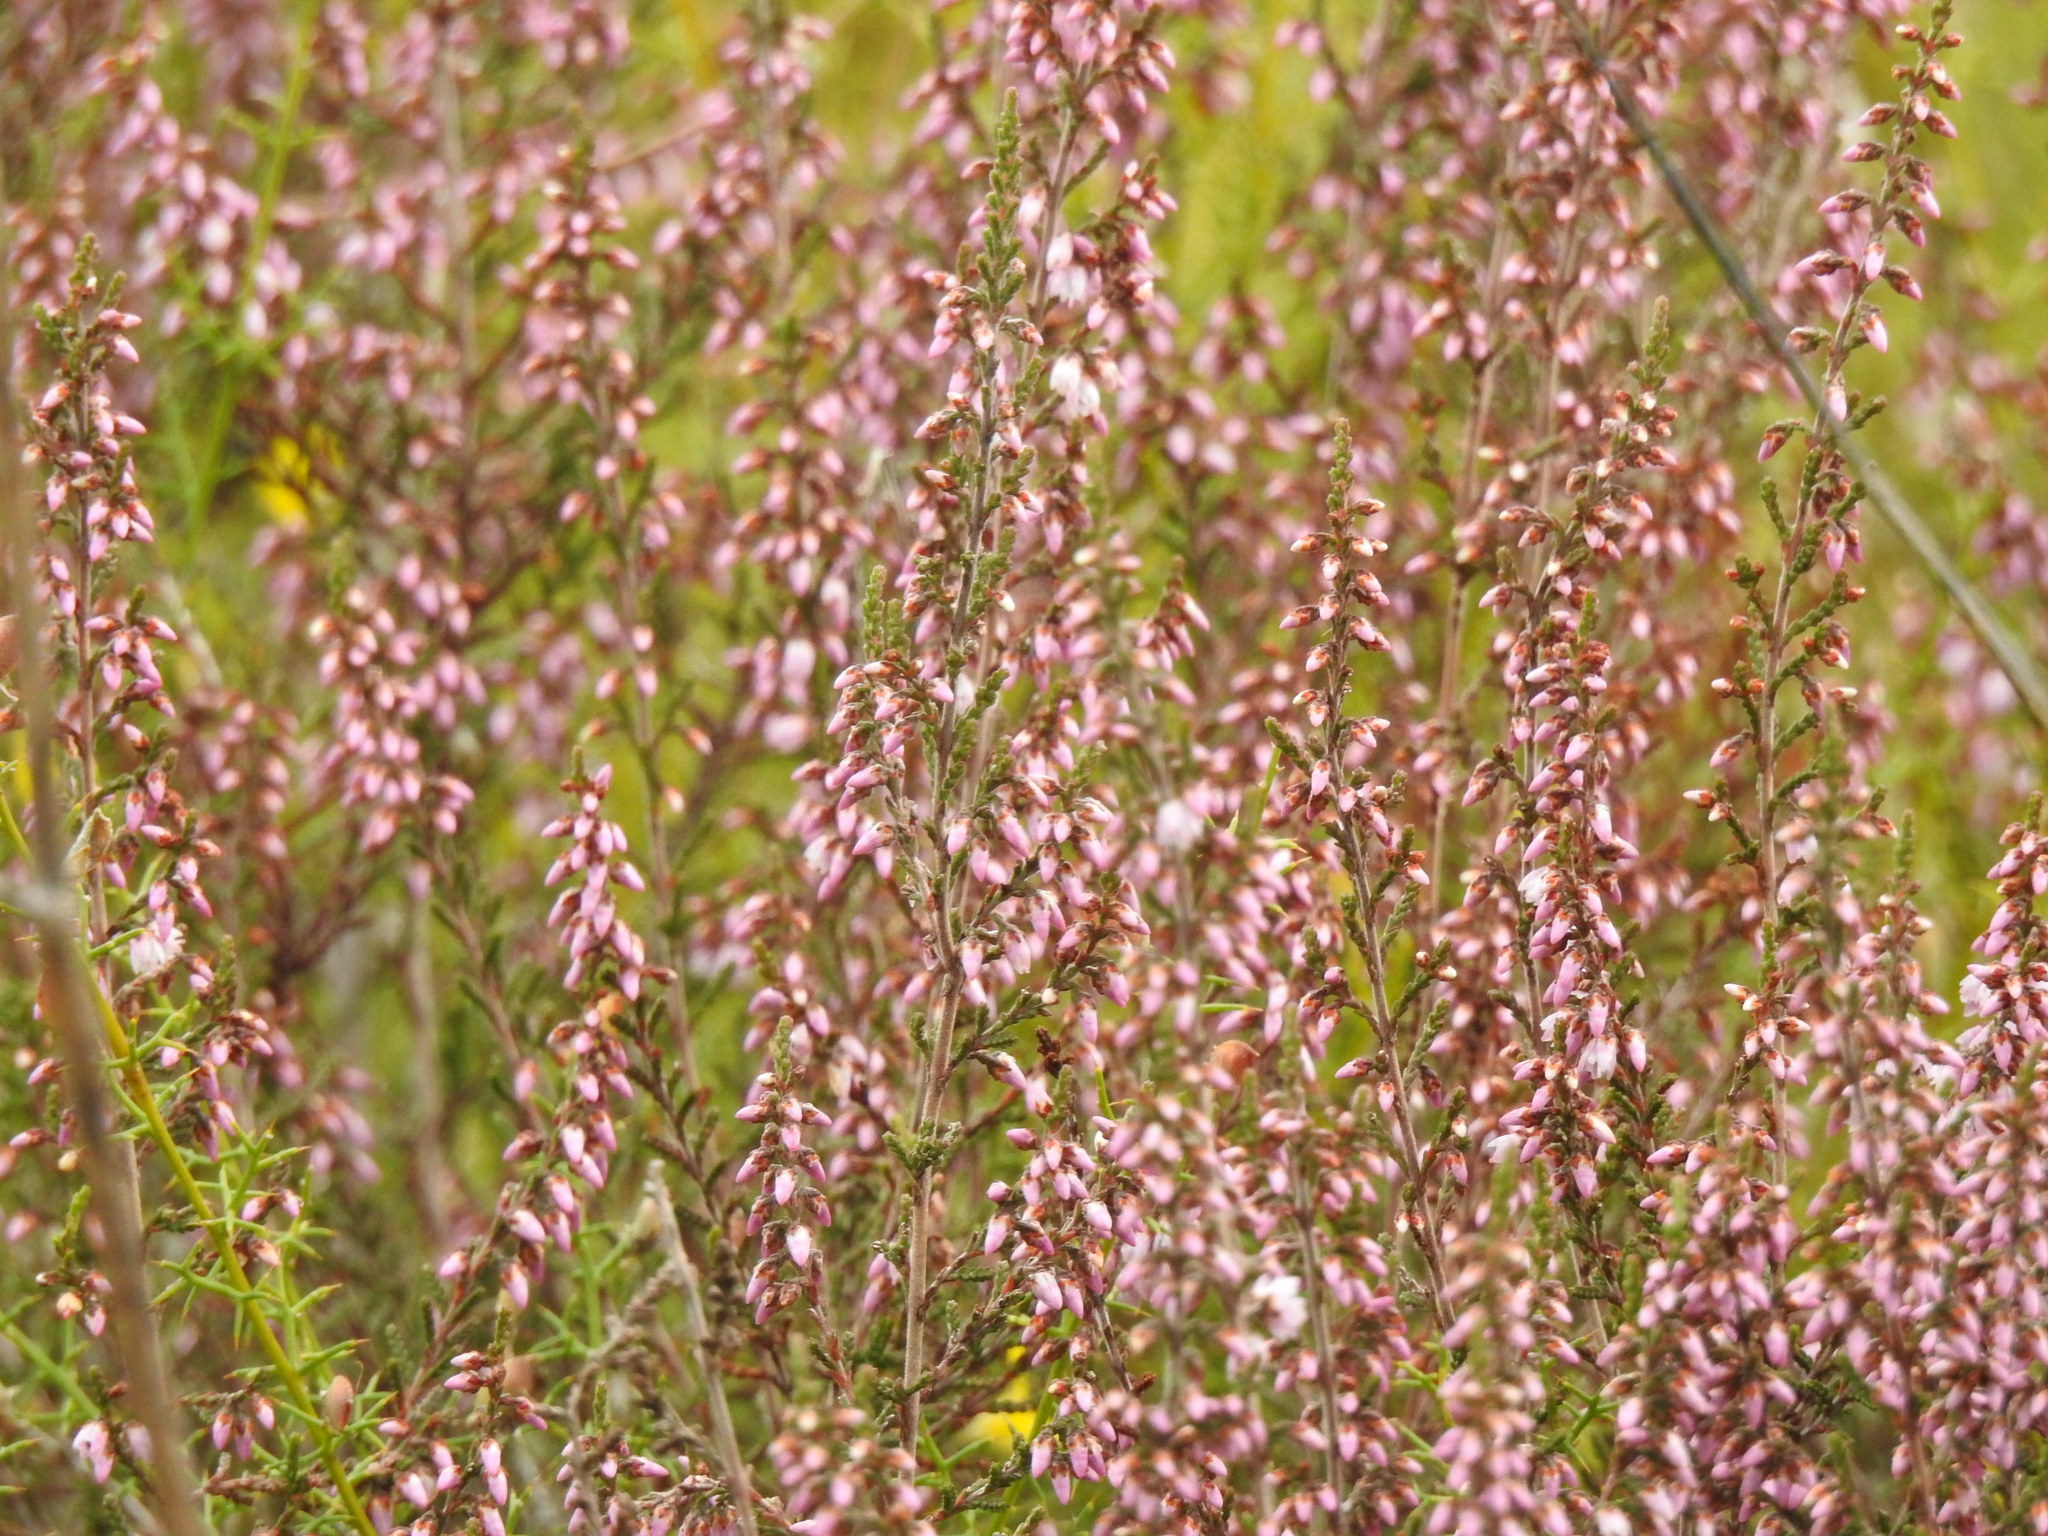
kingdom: Plantae
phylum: Tracheophyta
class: Magnoliopsida
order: Ericales
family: Ericaceae
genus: Calluna
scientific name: Calluna vulgaris
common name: Heather
